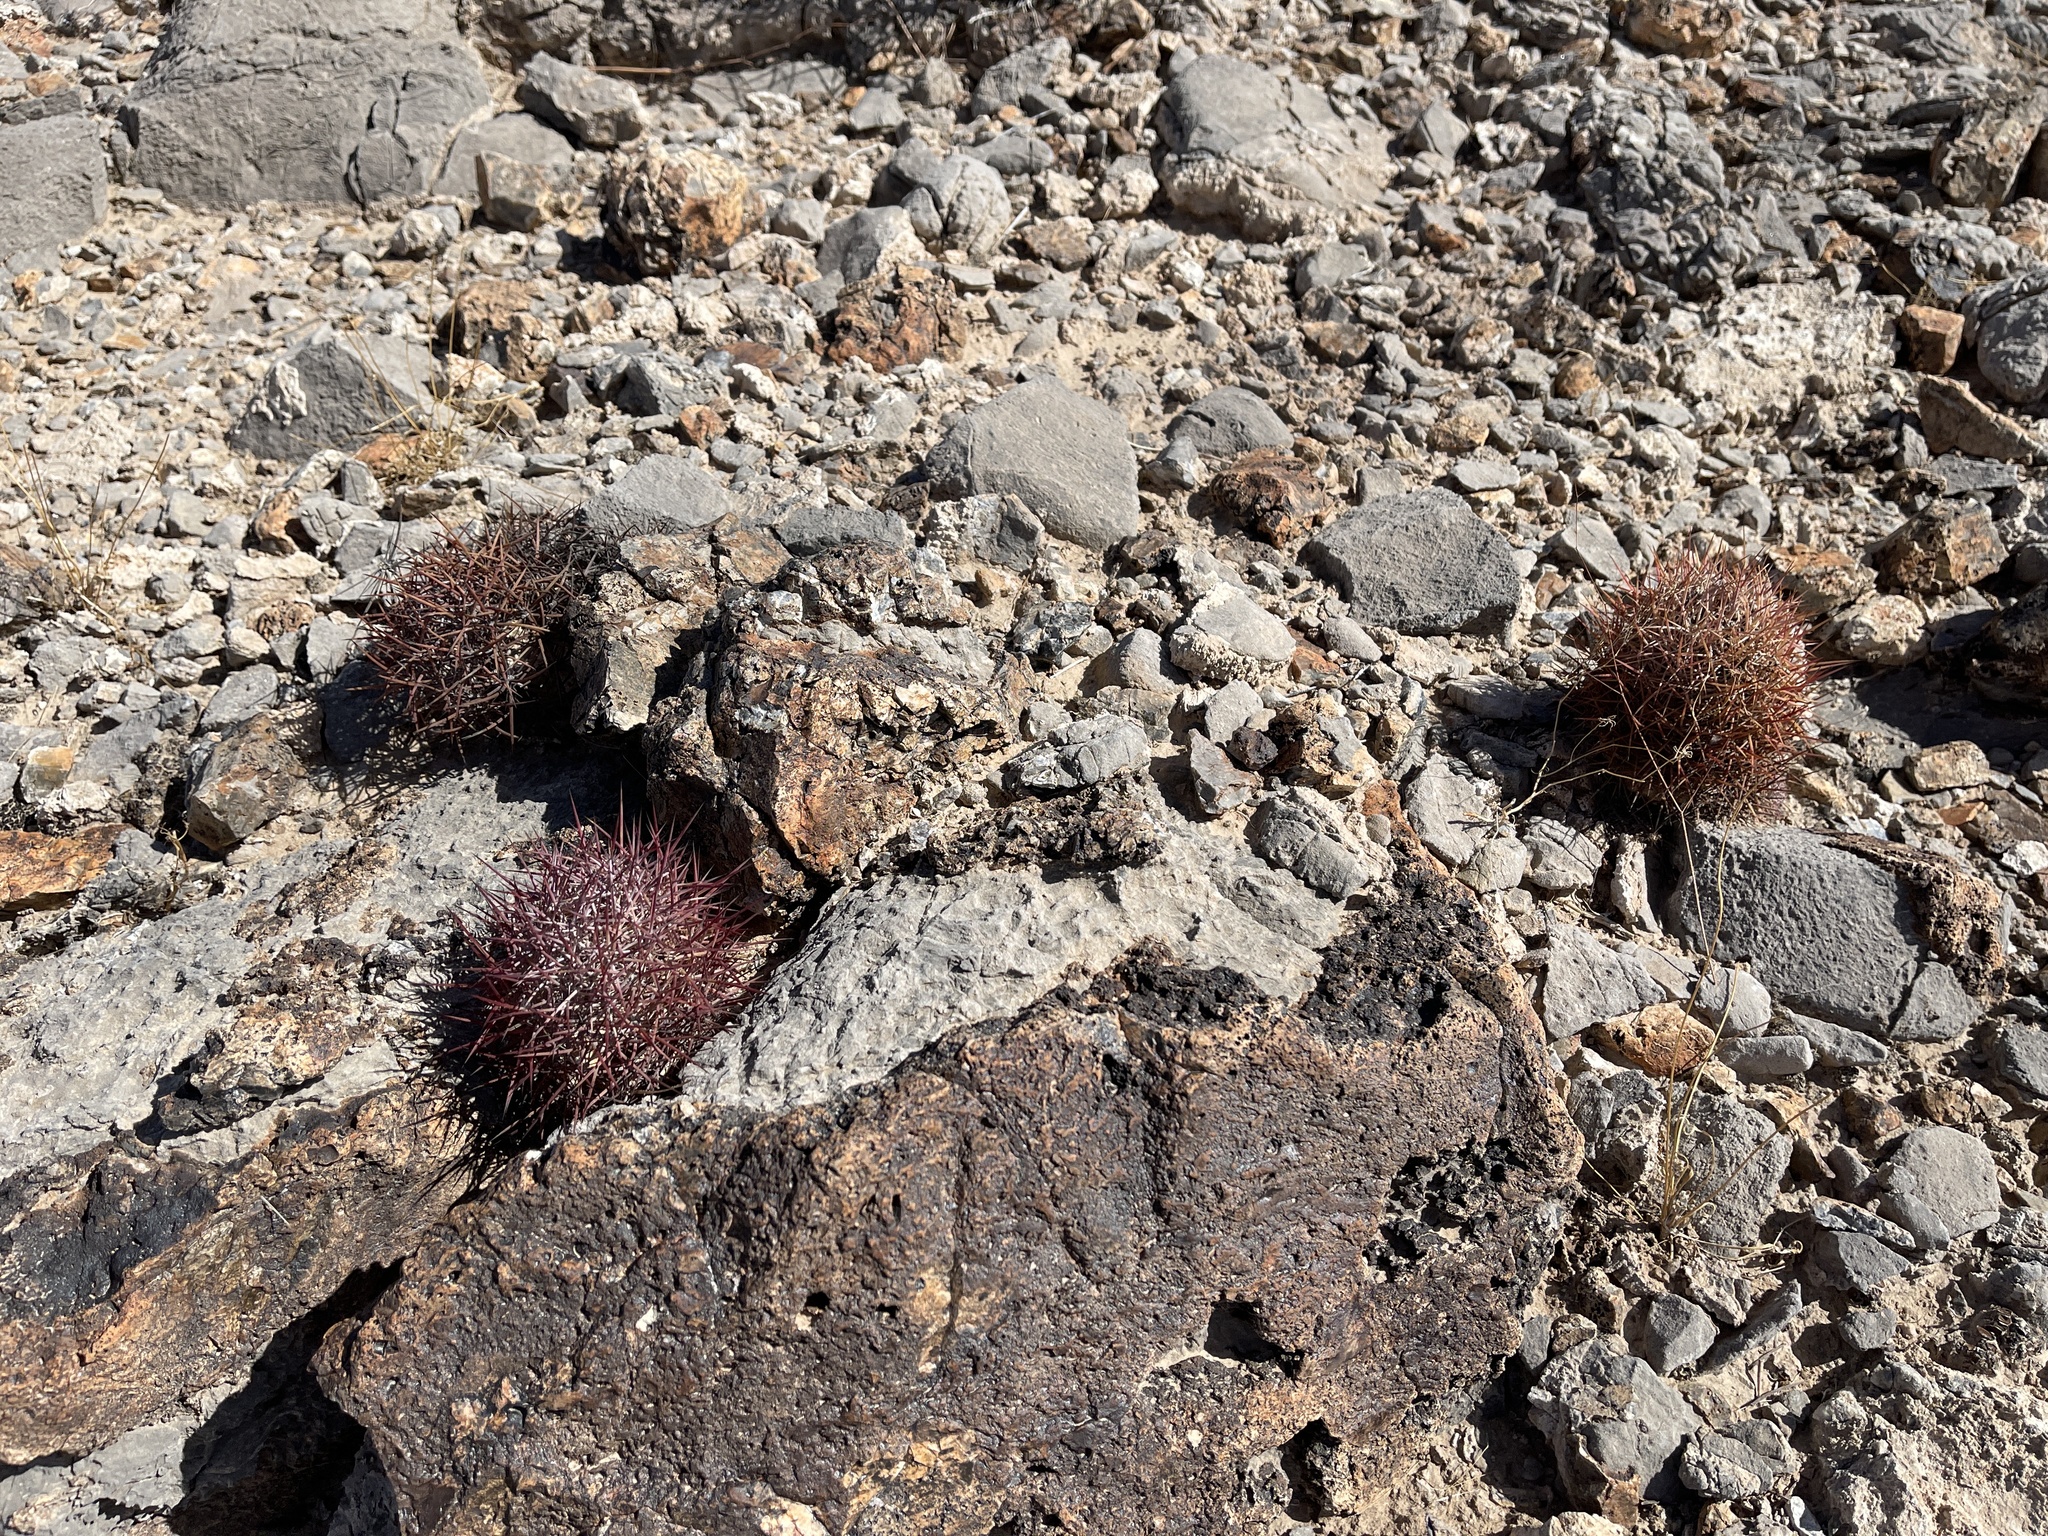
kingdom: Plantae
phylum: Tracheophyta
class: Magnoliopsida
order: Caryophyllales
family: Cactaceae
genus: Sclerocactus
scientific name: Sclerocactus johnsonii
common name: Eight-spine fishhook cactus
